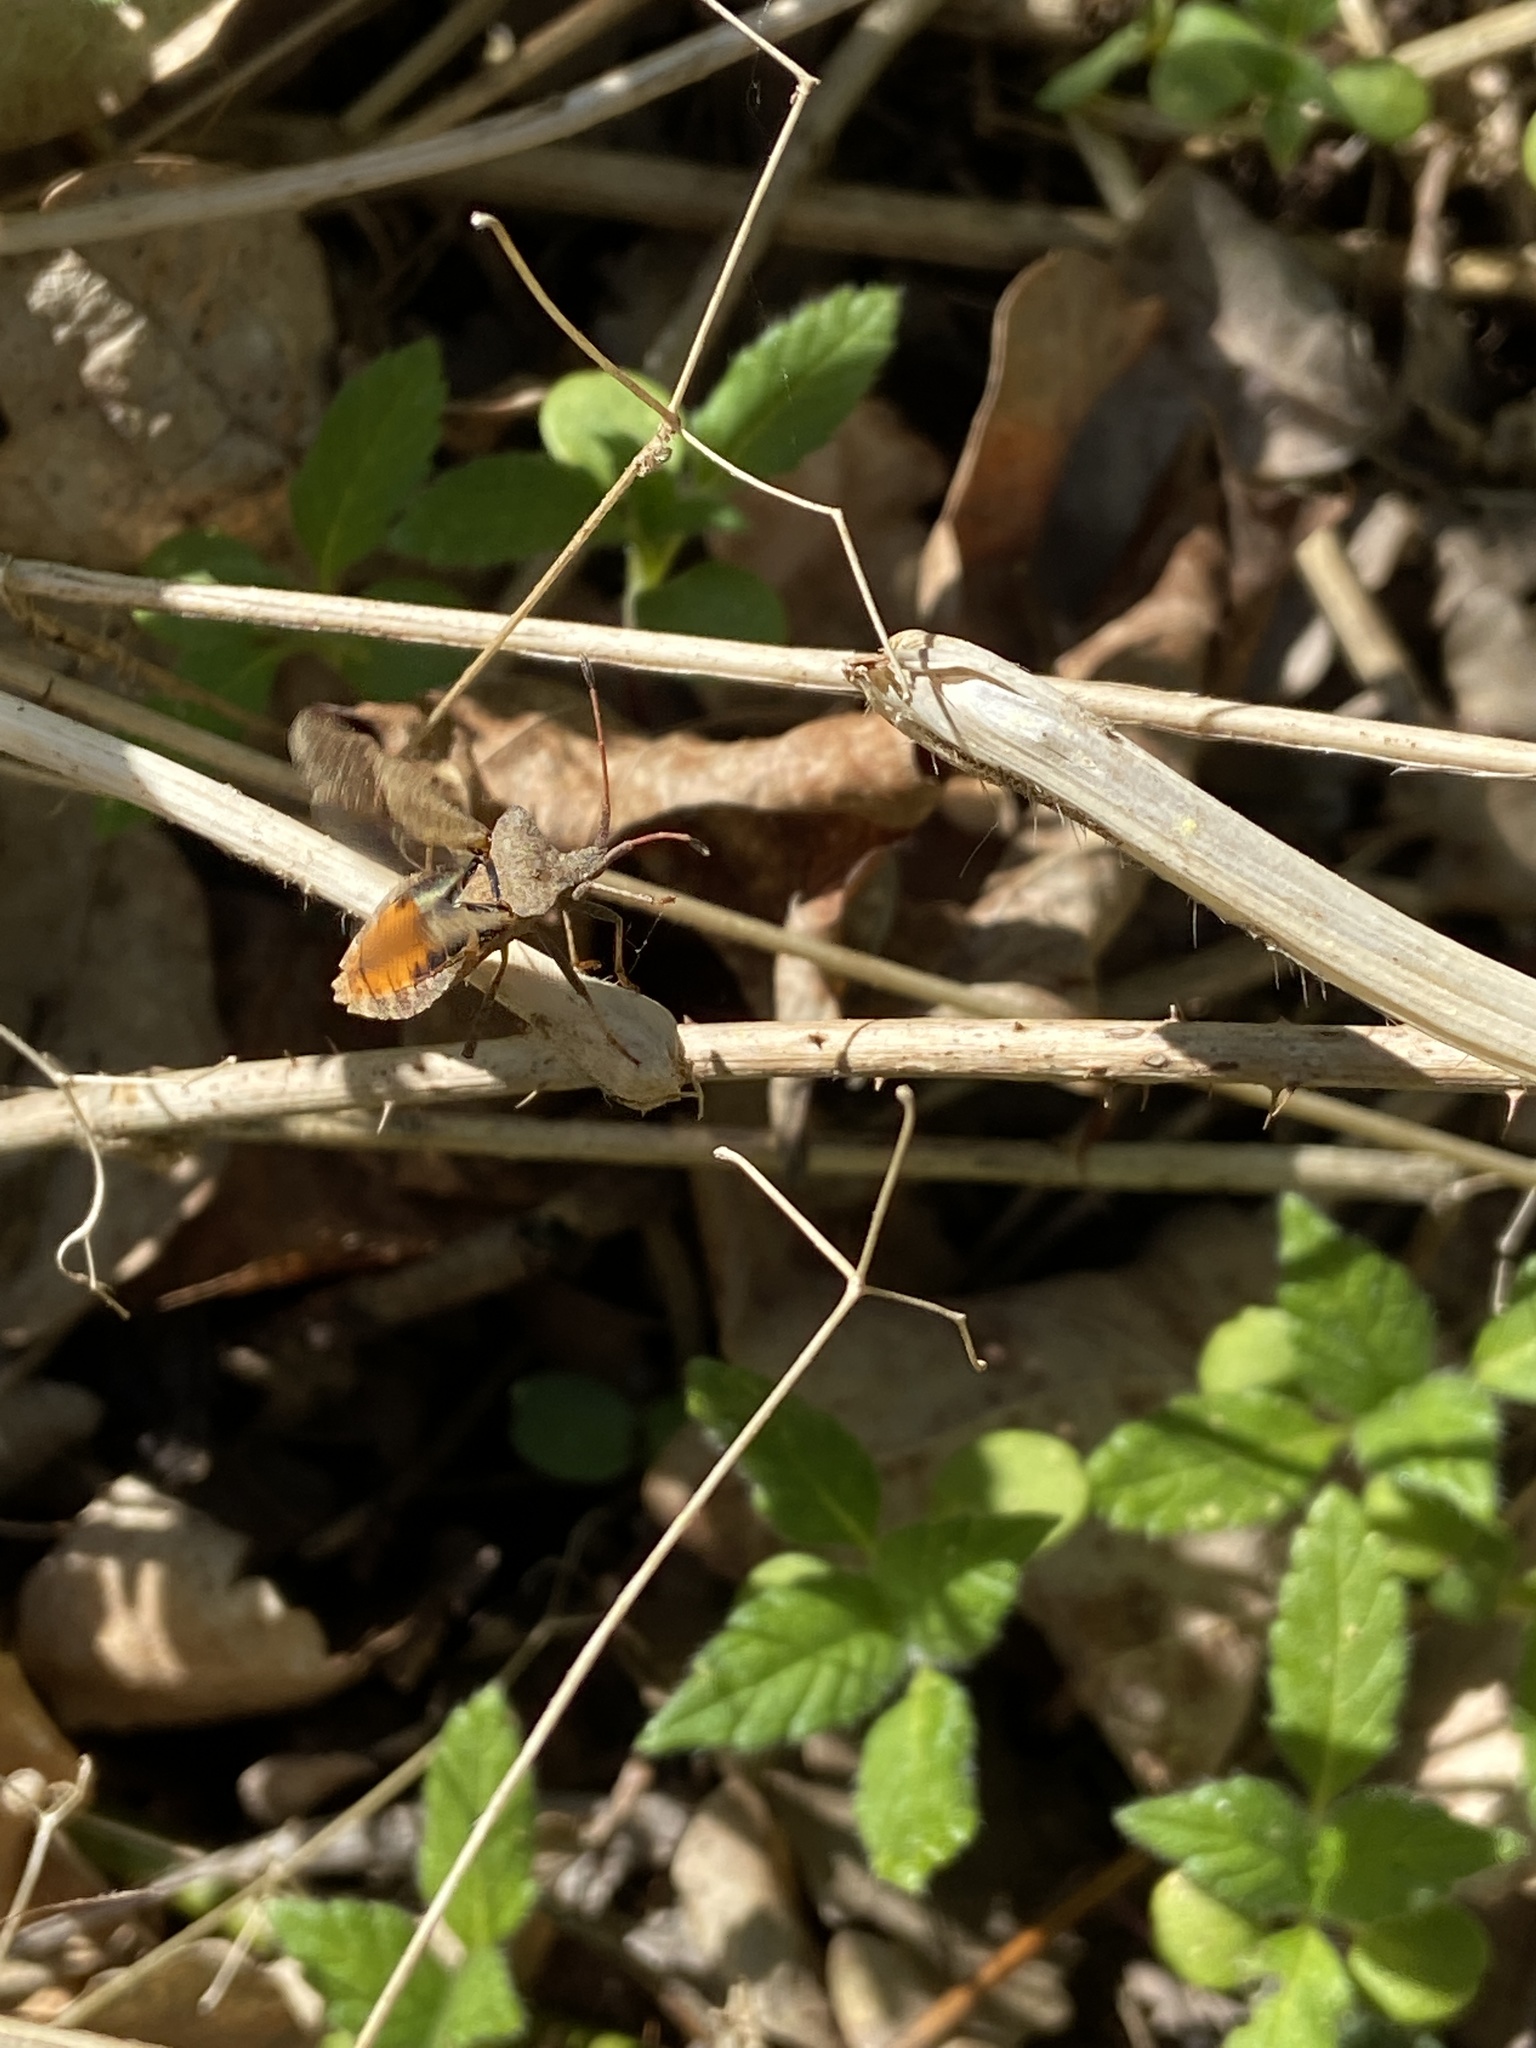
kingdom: Animalia
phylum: Arthropoda
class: Insecta
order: Hemiptera
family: Coreidae
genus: Coreus
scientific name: Coreus marginatus
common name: Dock bug
